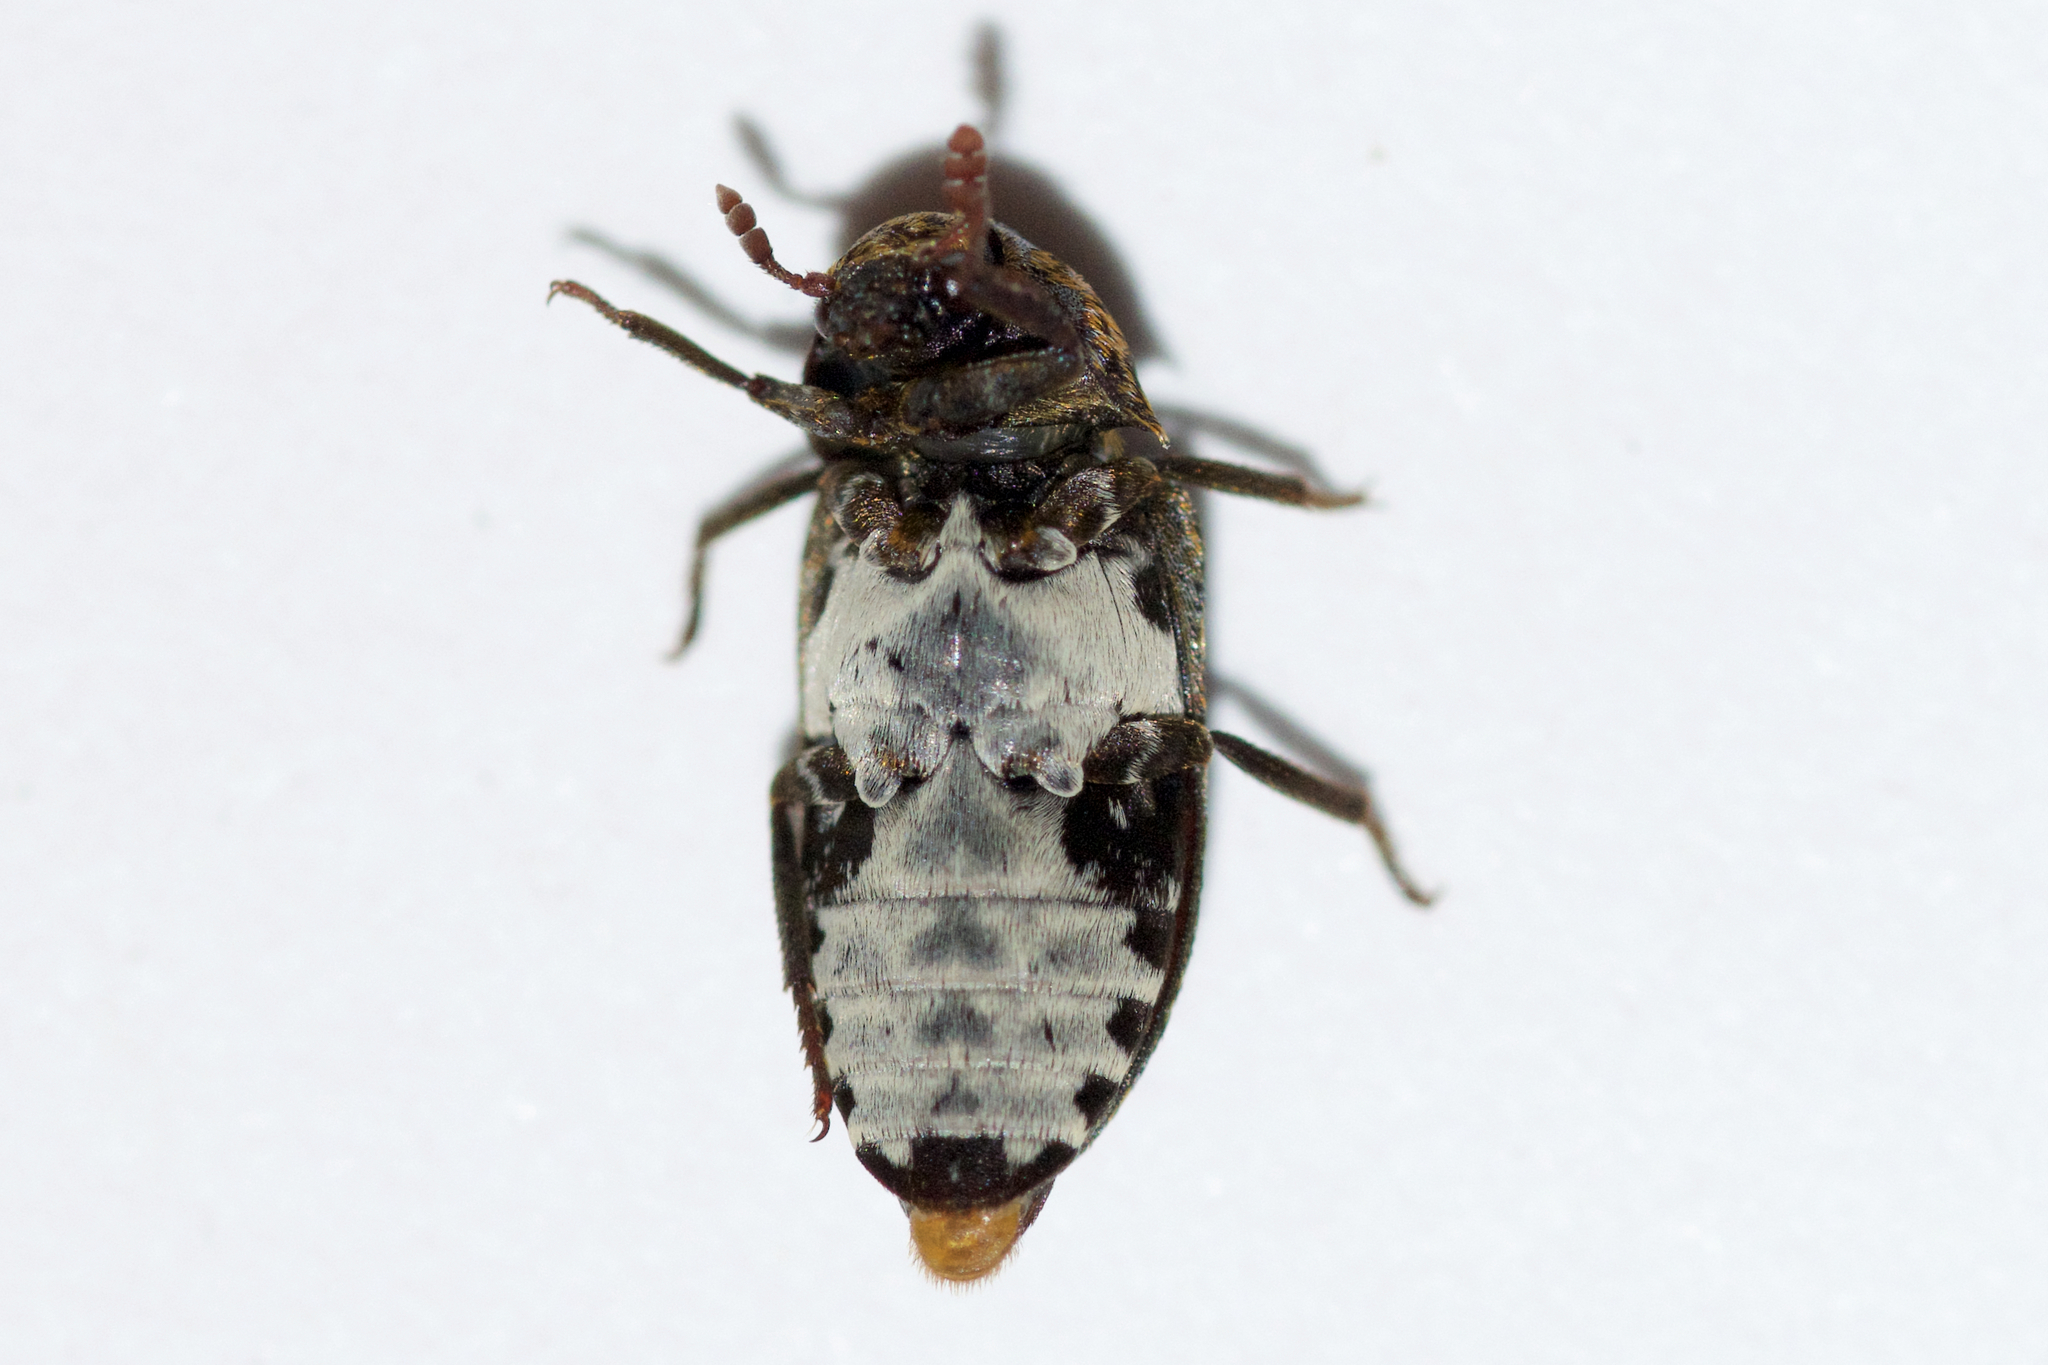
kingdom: Animalia
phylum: Arthropoda
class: Insecta
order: Coleoptera
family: Dermestidae
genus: Dermestes
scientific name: Dermestes undulatus
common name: Wavy carpet beetle
